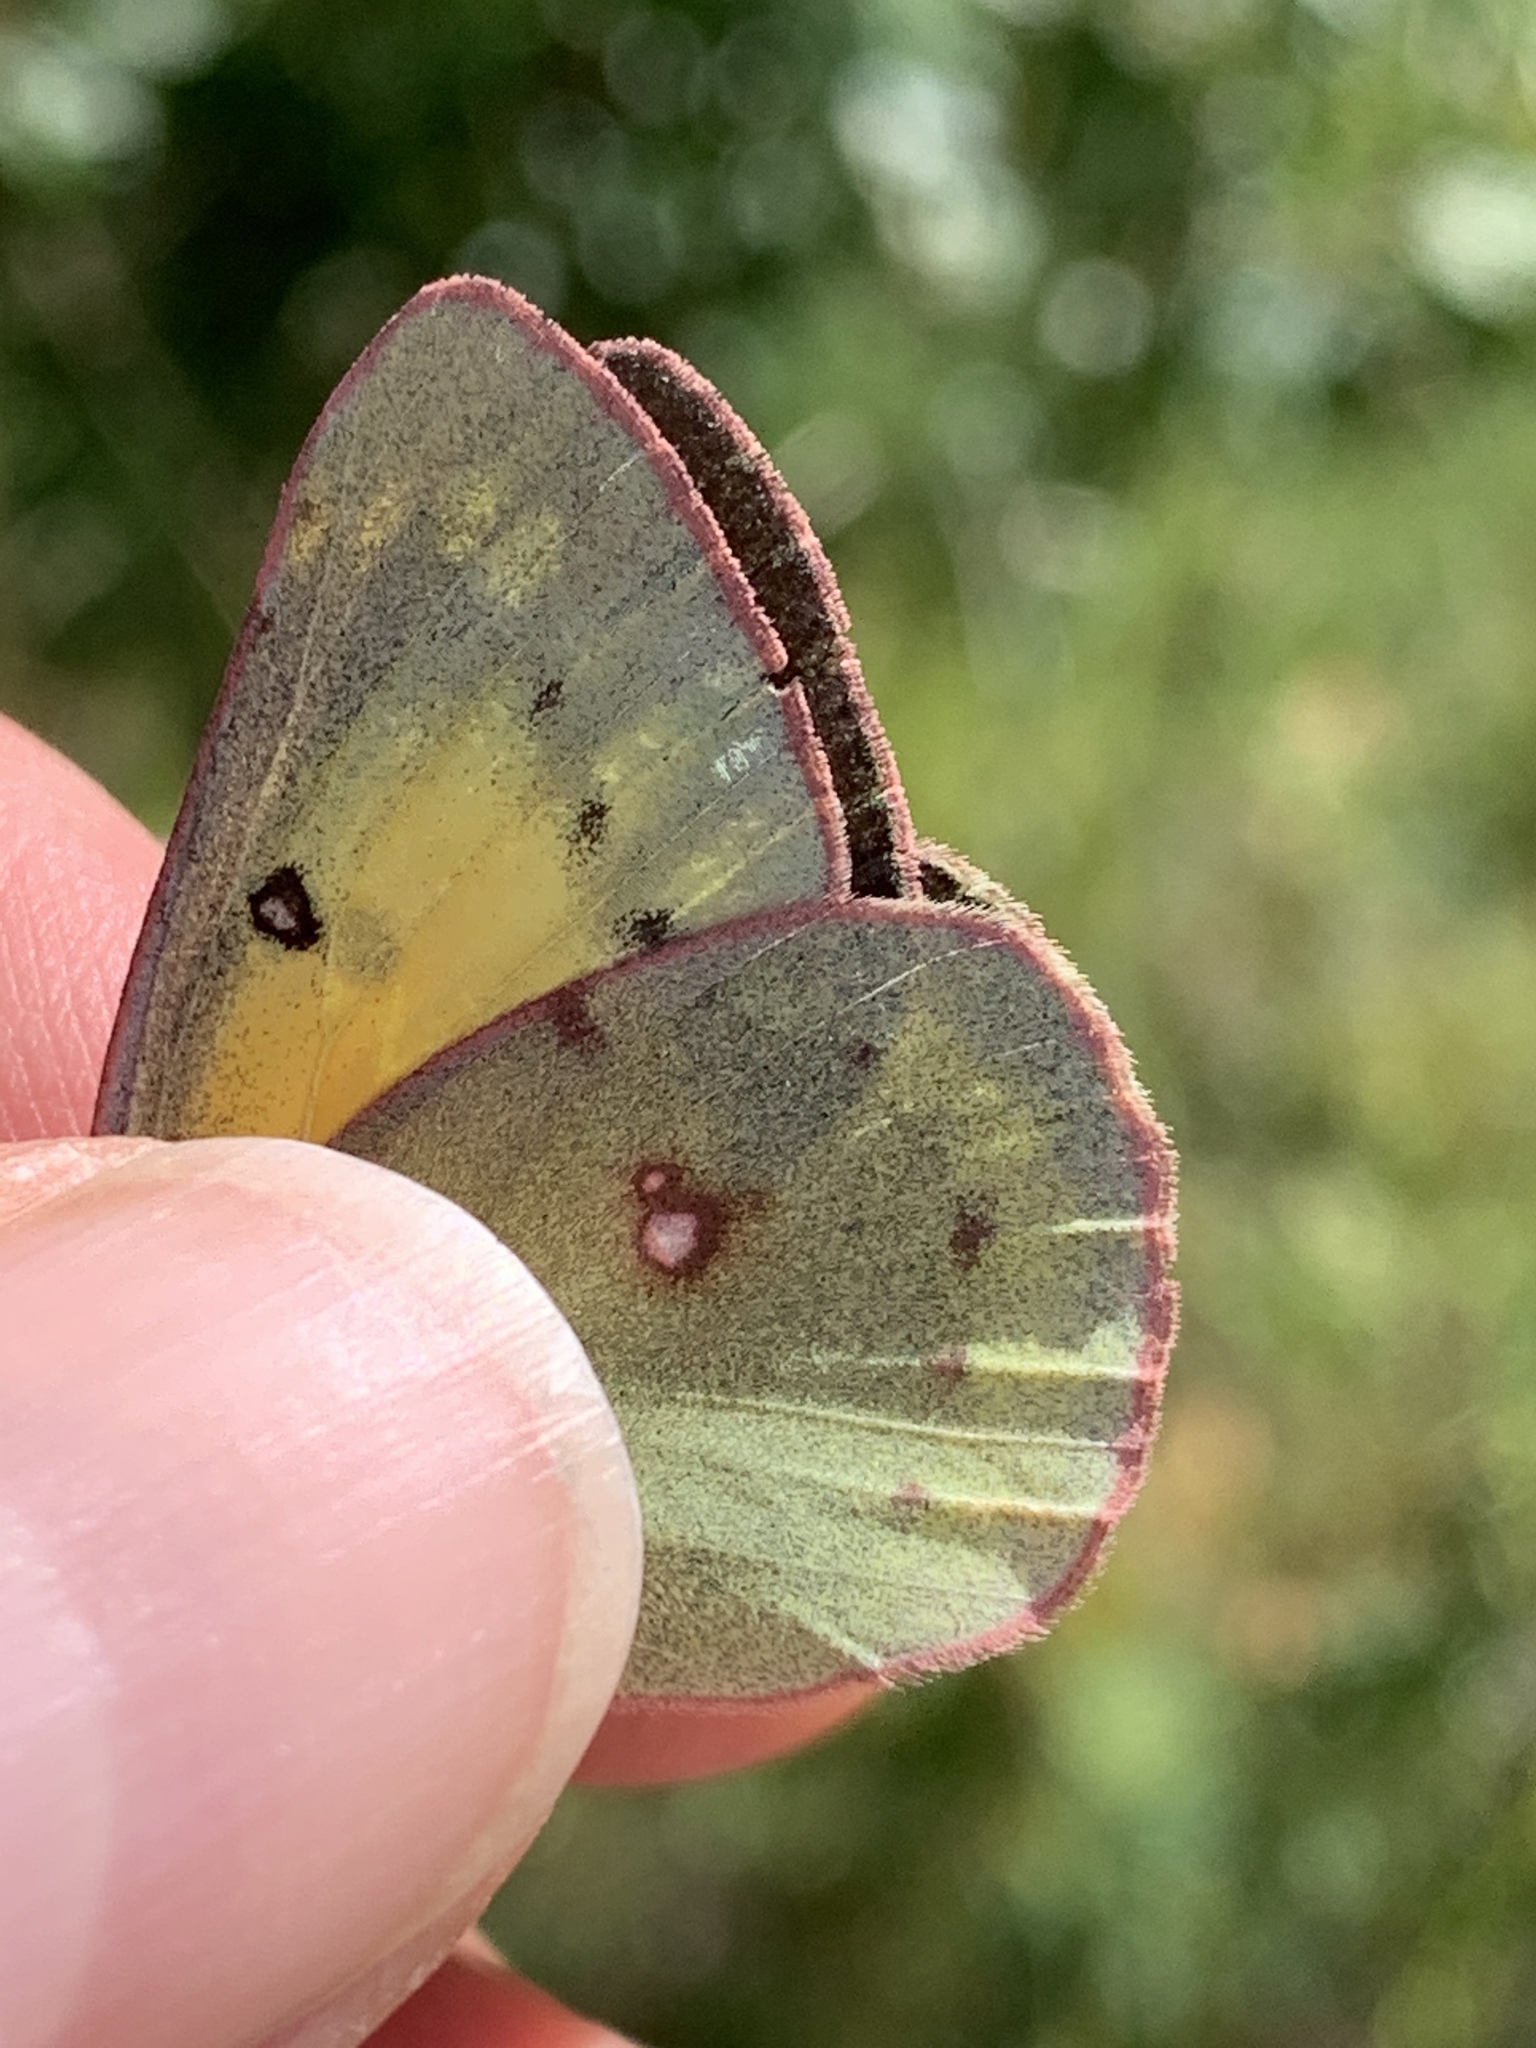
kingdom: Animalia
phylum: Arthropoda
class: Insecta
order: Lepidoptera
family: Pieridae
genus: Colias
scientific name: Colias philodice
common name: Clouded sulphur
